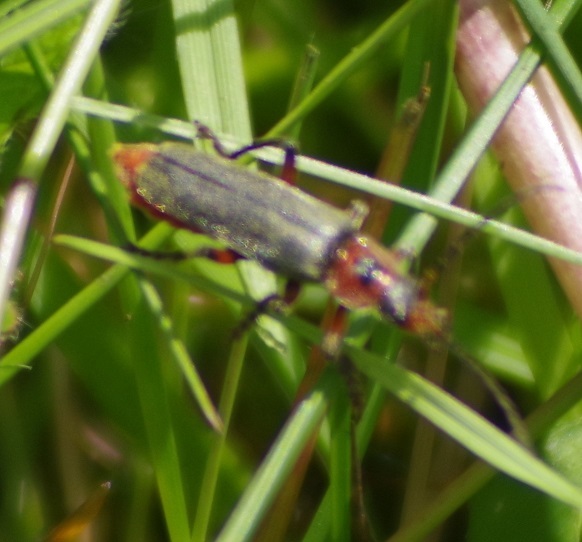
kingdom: Animalia
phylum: Arthropoda
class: Insecta
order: Coleoptera
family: Cantharidae
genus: Cantharis
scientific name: Cantharis rustica
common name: Soldier beetle
